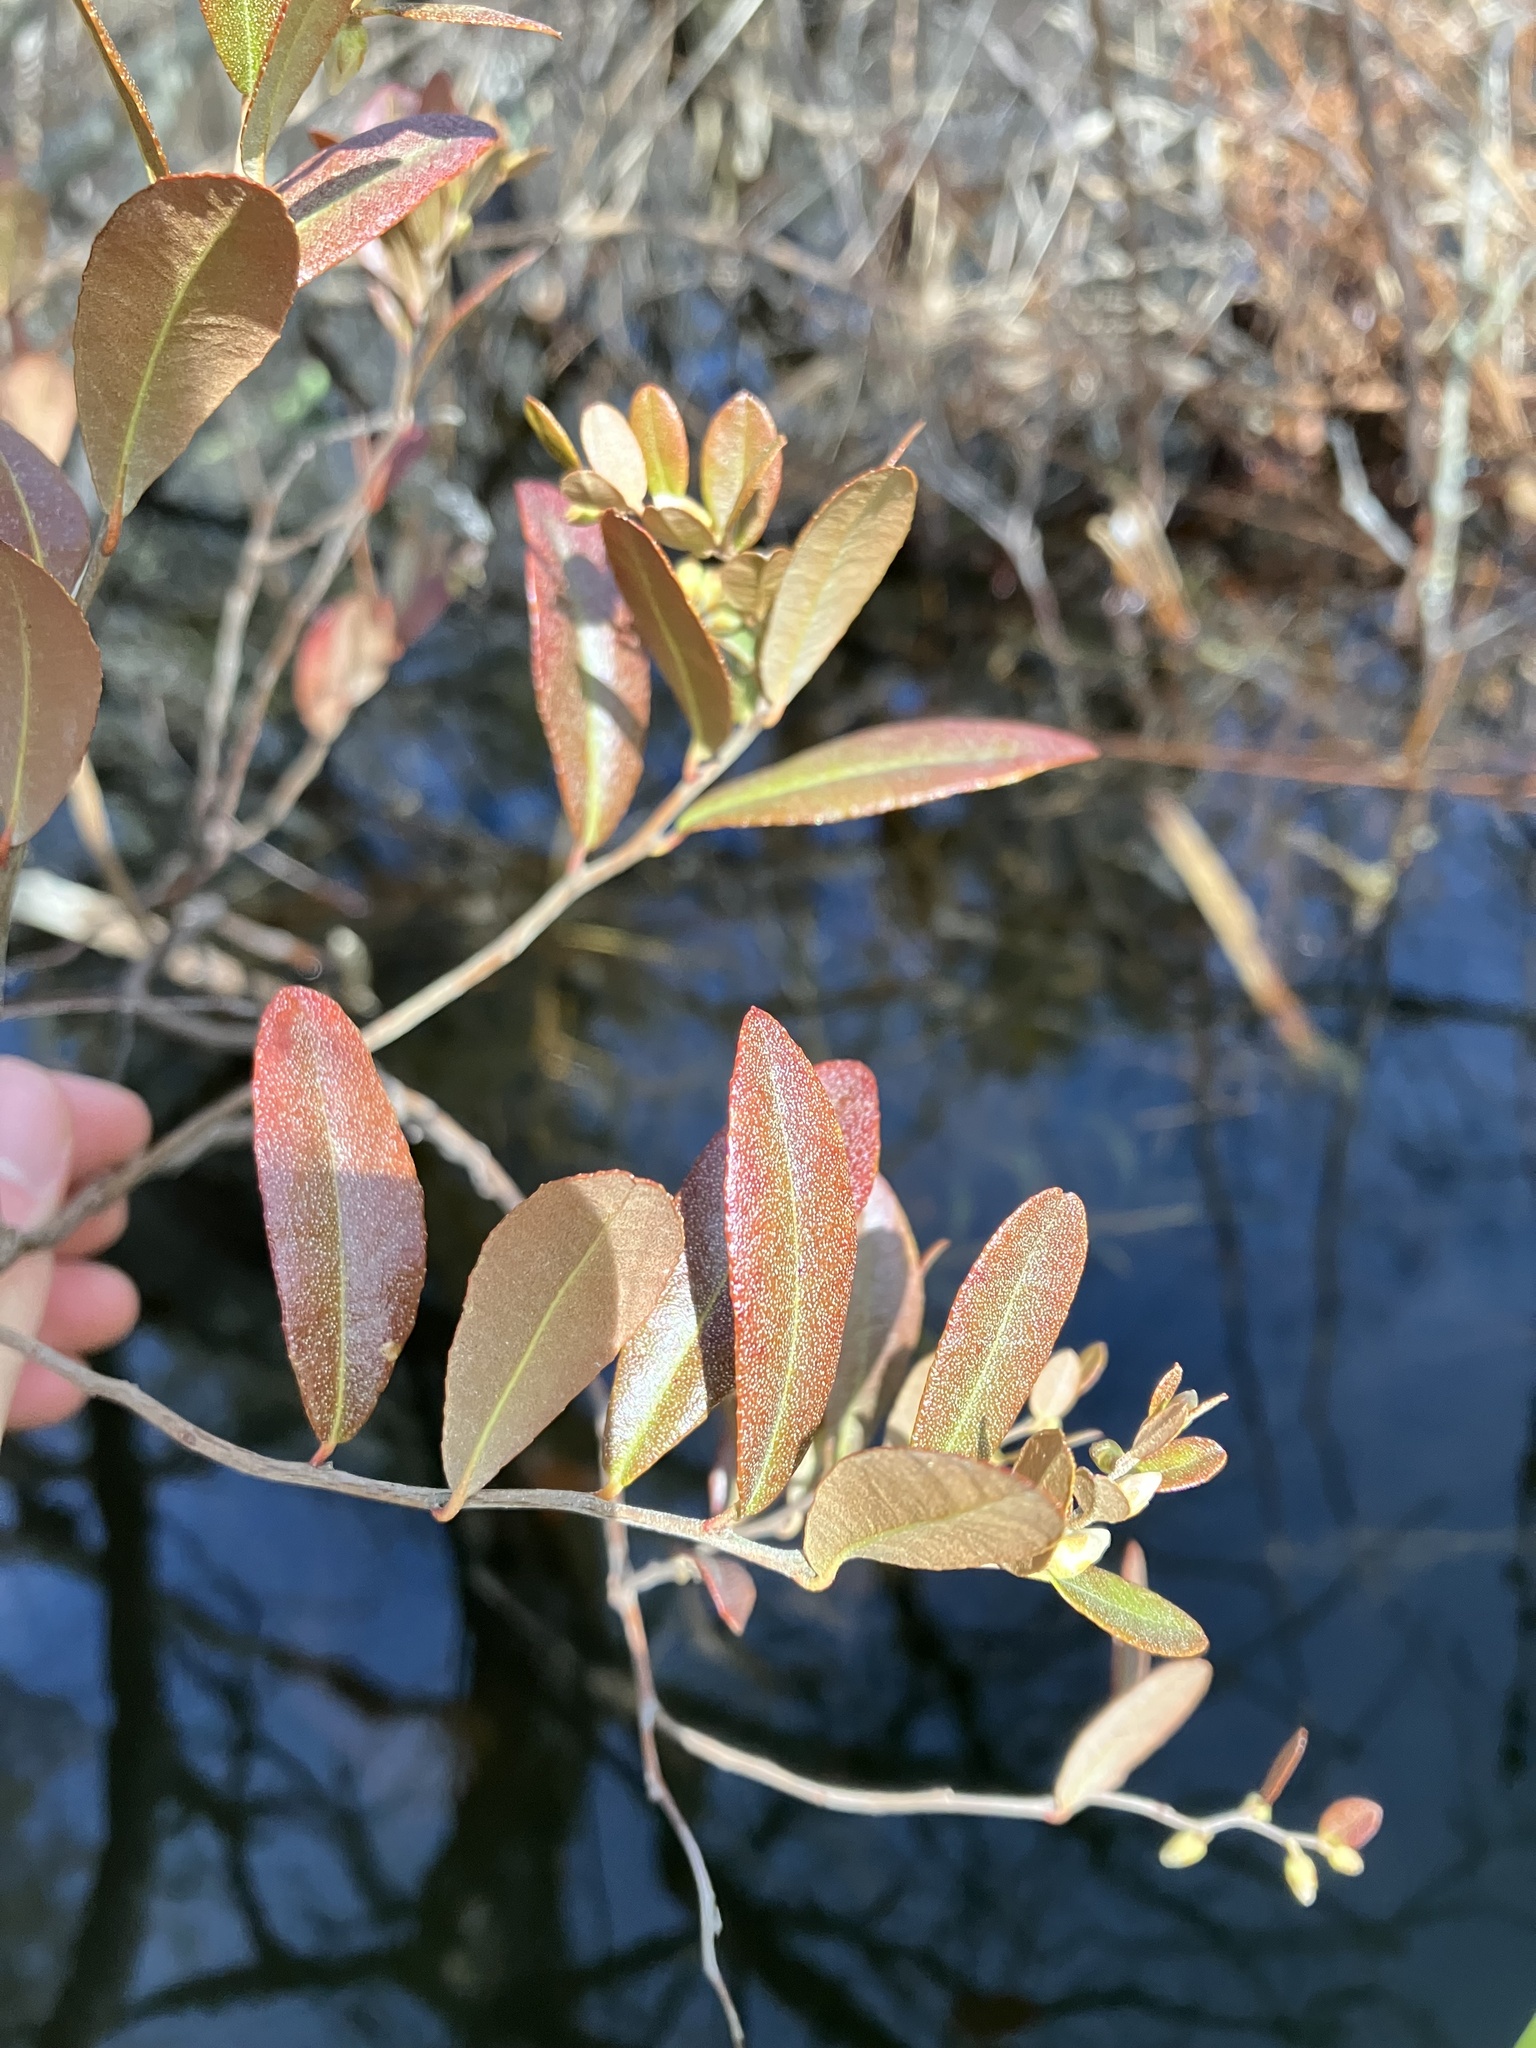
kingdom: Plantae
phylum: Tracheophyta
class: Magnoliopsida
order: Ericales
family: Ericaceae
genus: Chamaedaphne
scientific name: Chamaedaphne calyculata
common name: Leatherleaf
